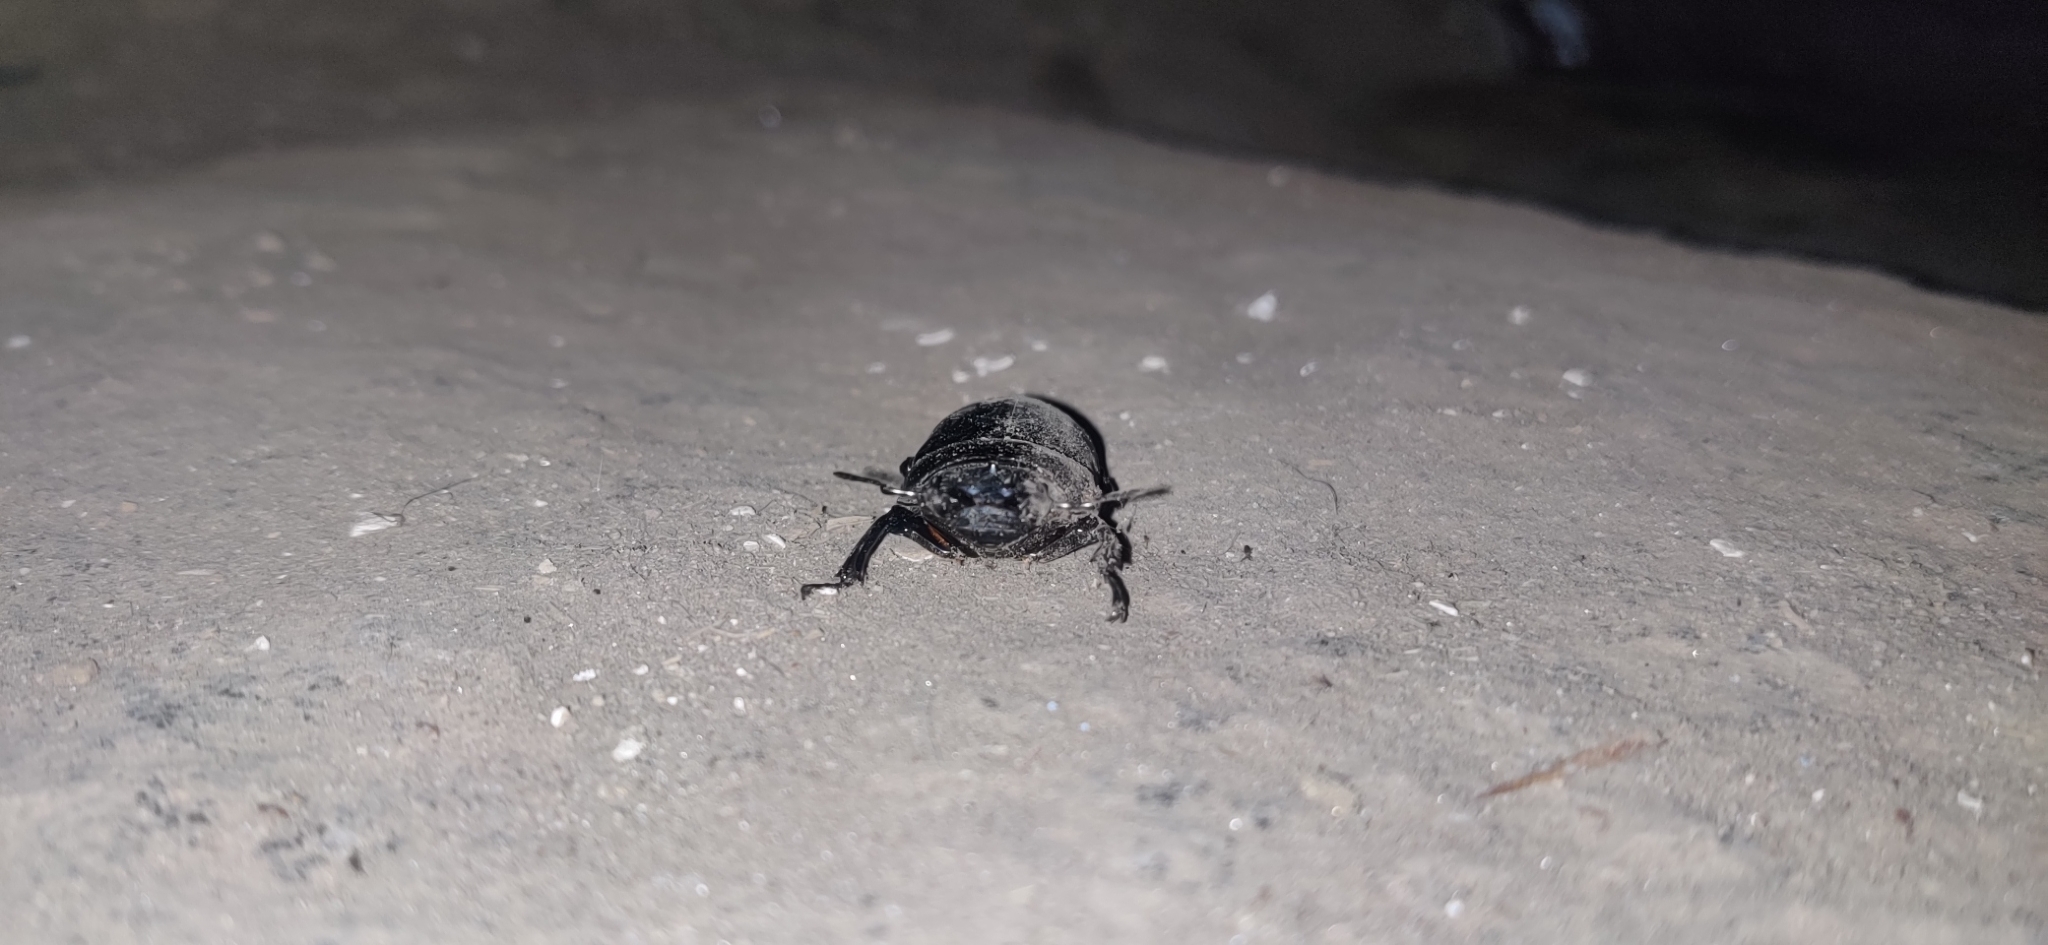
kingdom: Animalia
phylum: Arthropoda
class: Insecta
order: Coleoptera
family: Lucanidae
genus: Dorcus
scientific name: Dorcus nepalensis
